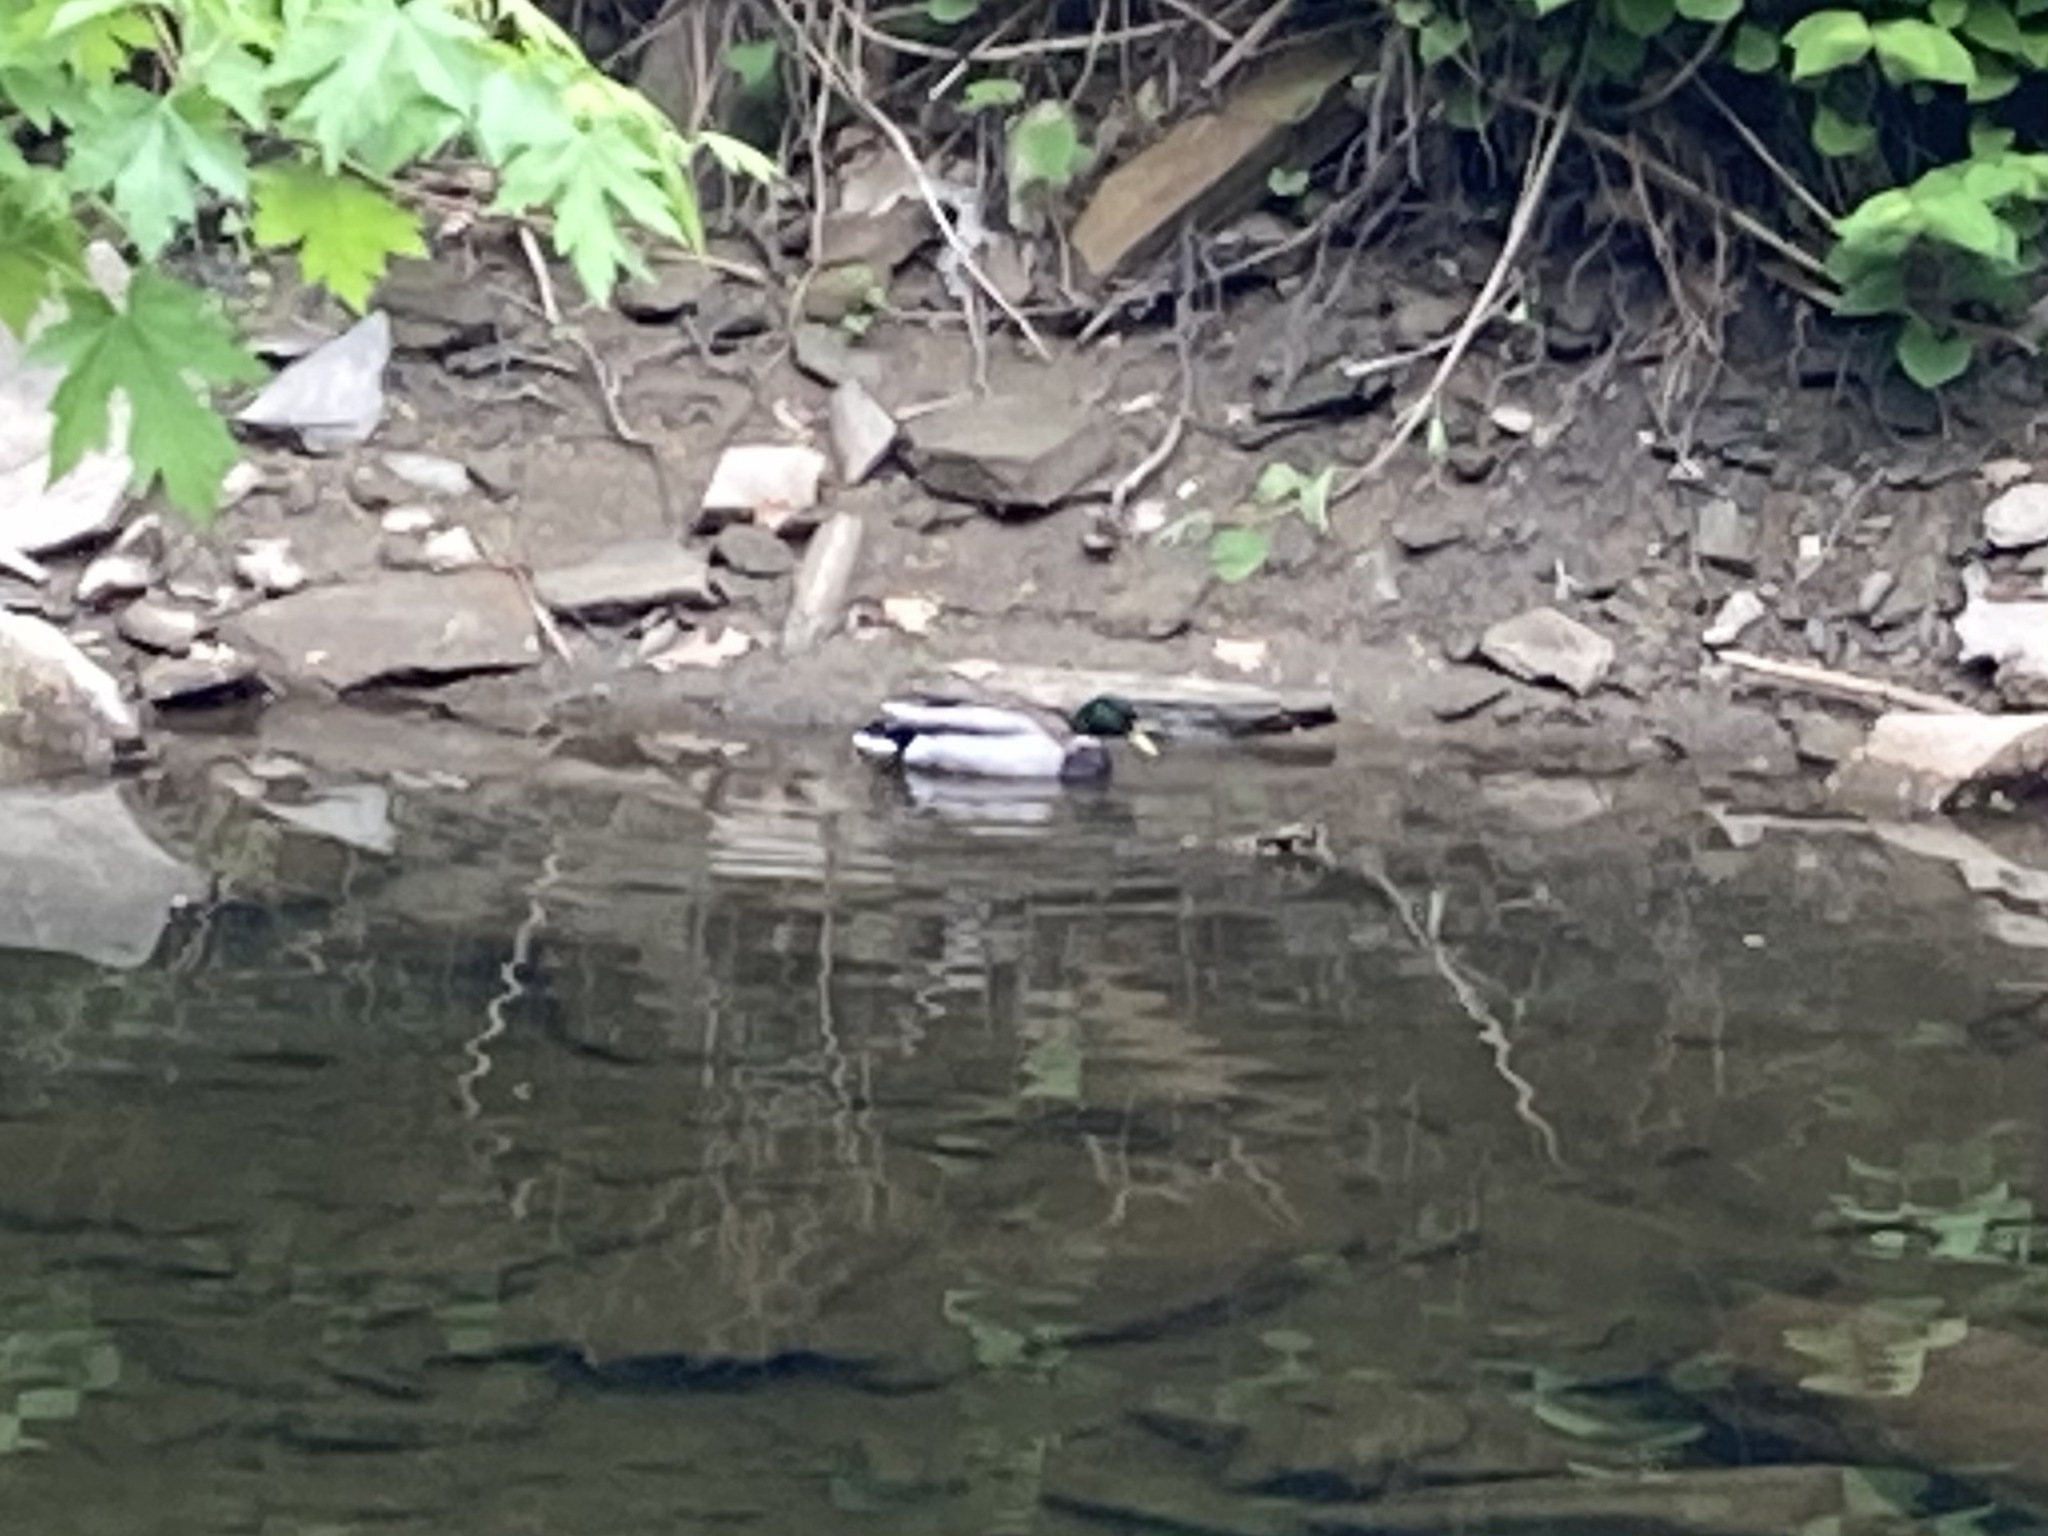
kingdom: Animalia
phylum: Chordata
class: Aves
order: Anseriformes
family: Anatidae
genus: Anas
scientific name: Anas platyrhynchos
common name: Mallard
